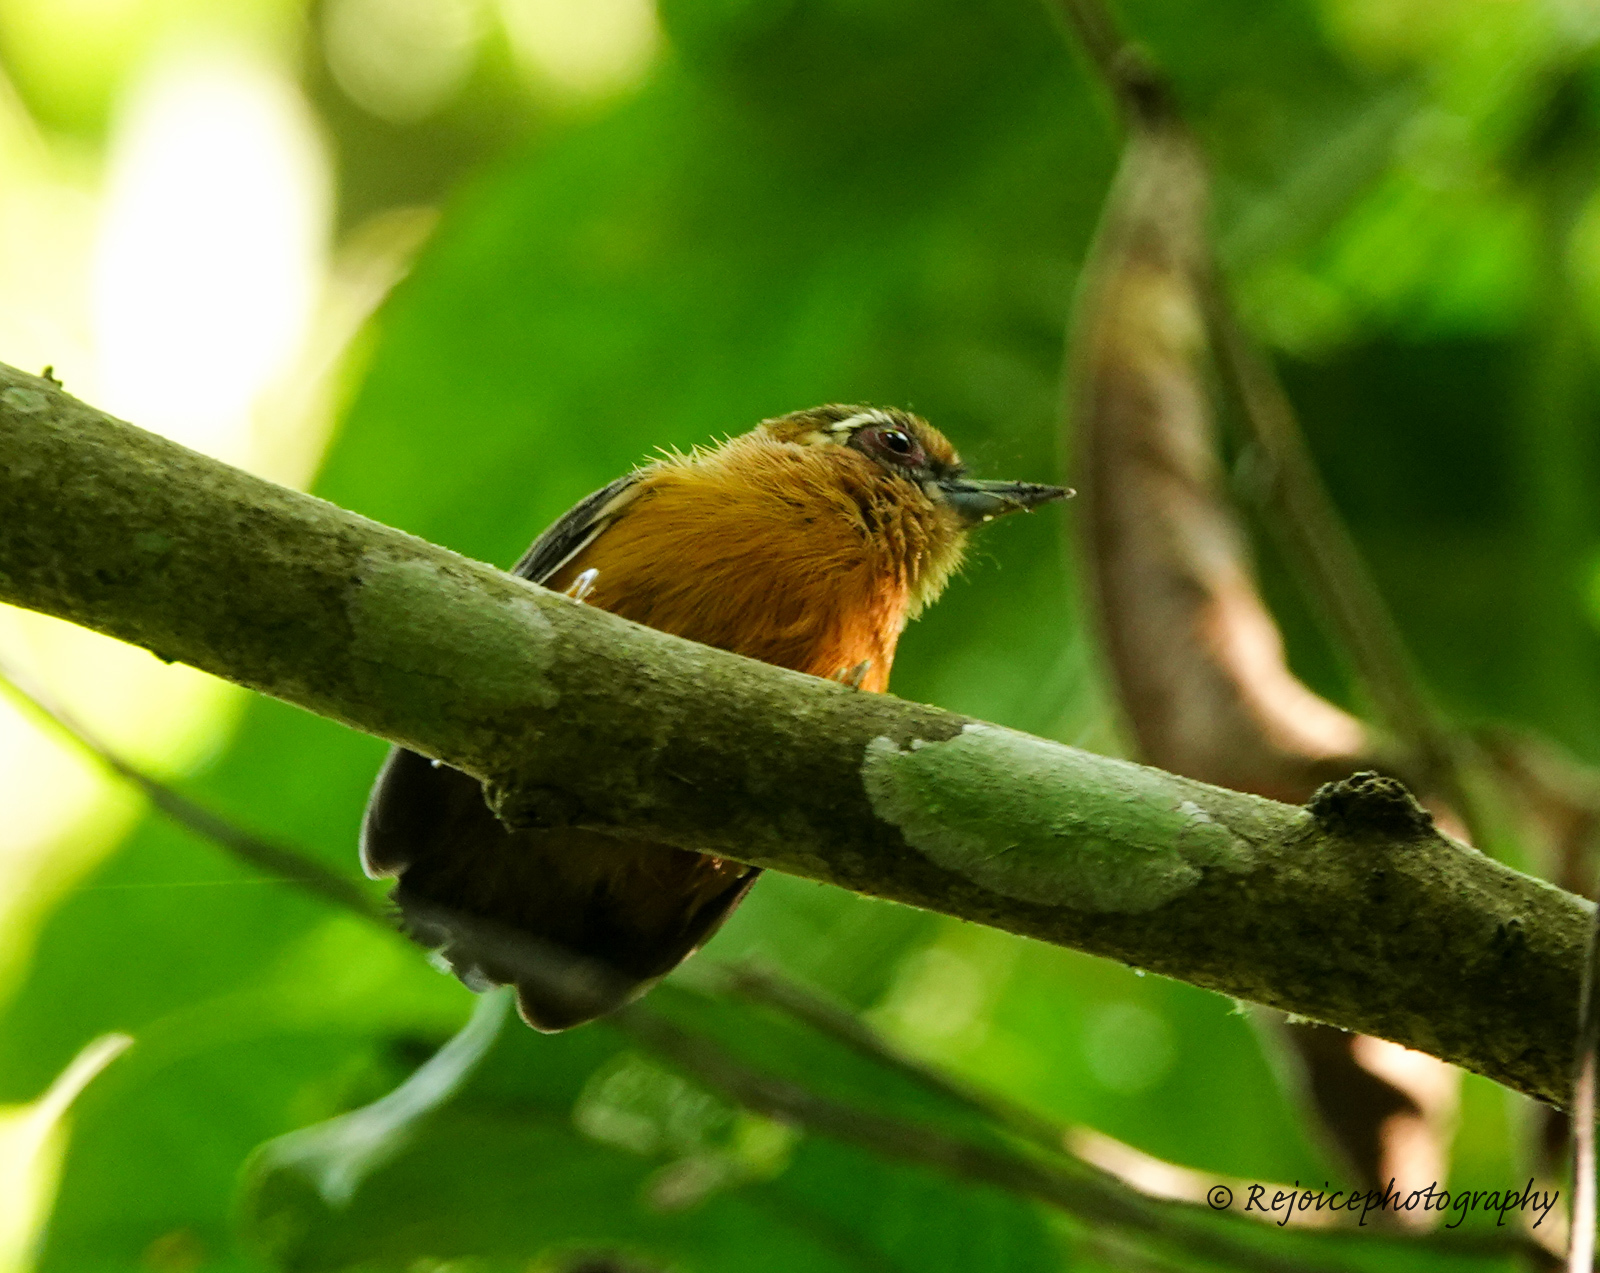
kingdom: Animalia
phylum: Chordata
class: Aves
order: Piciformes
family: Picidae
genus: Sasia
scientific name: Sasia ochracea
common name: White-browed piculet
